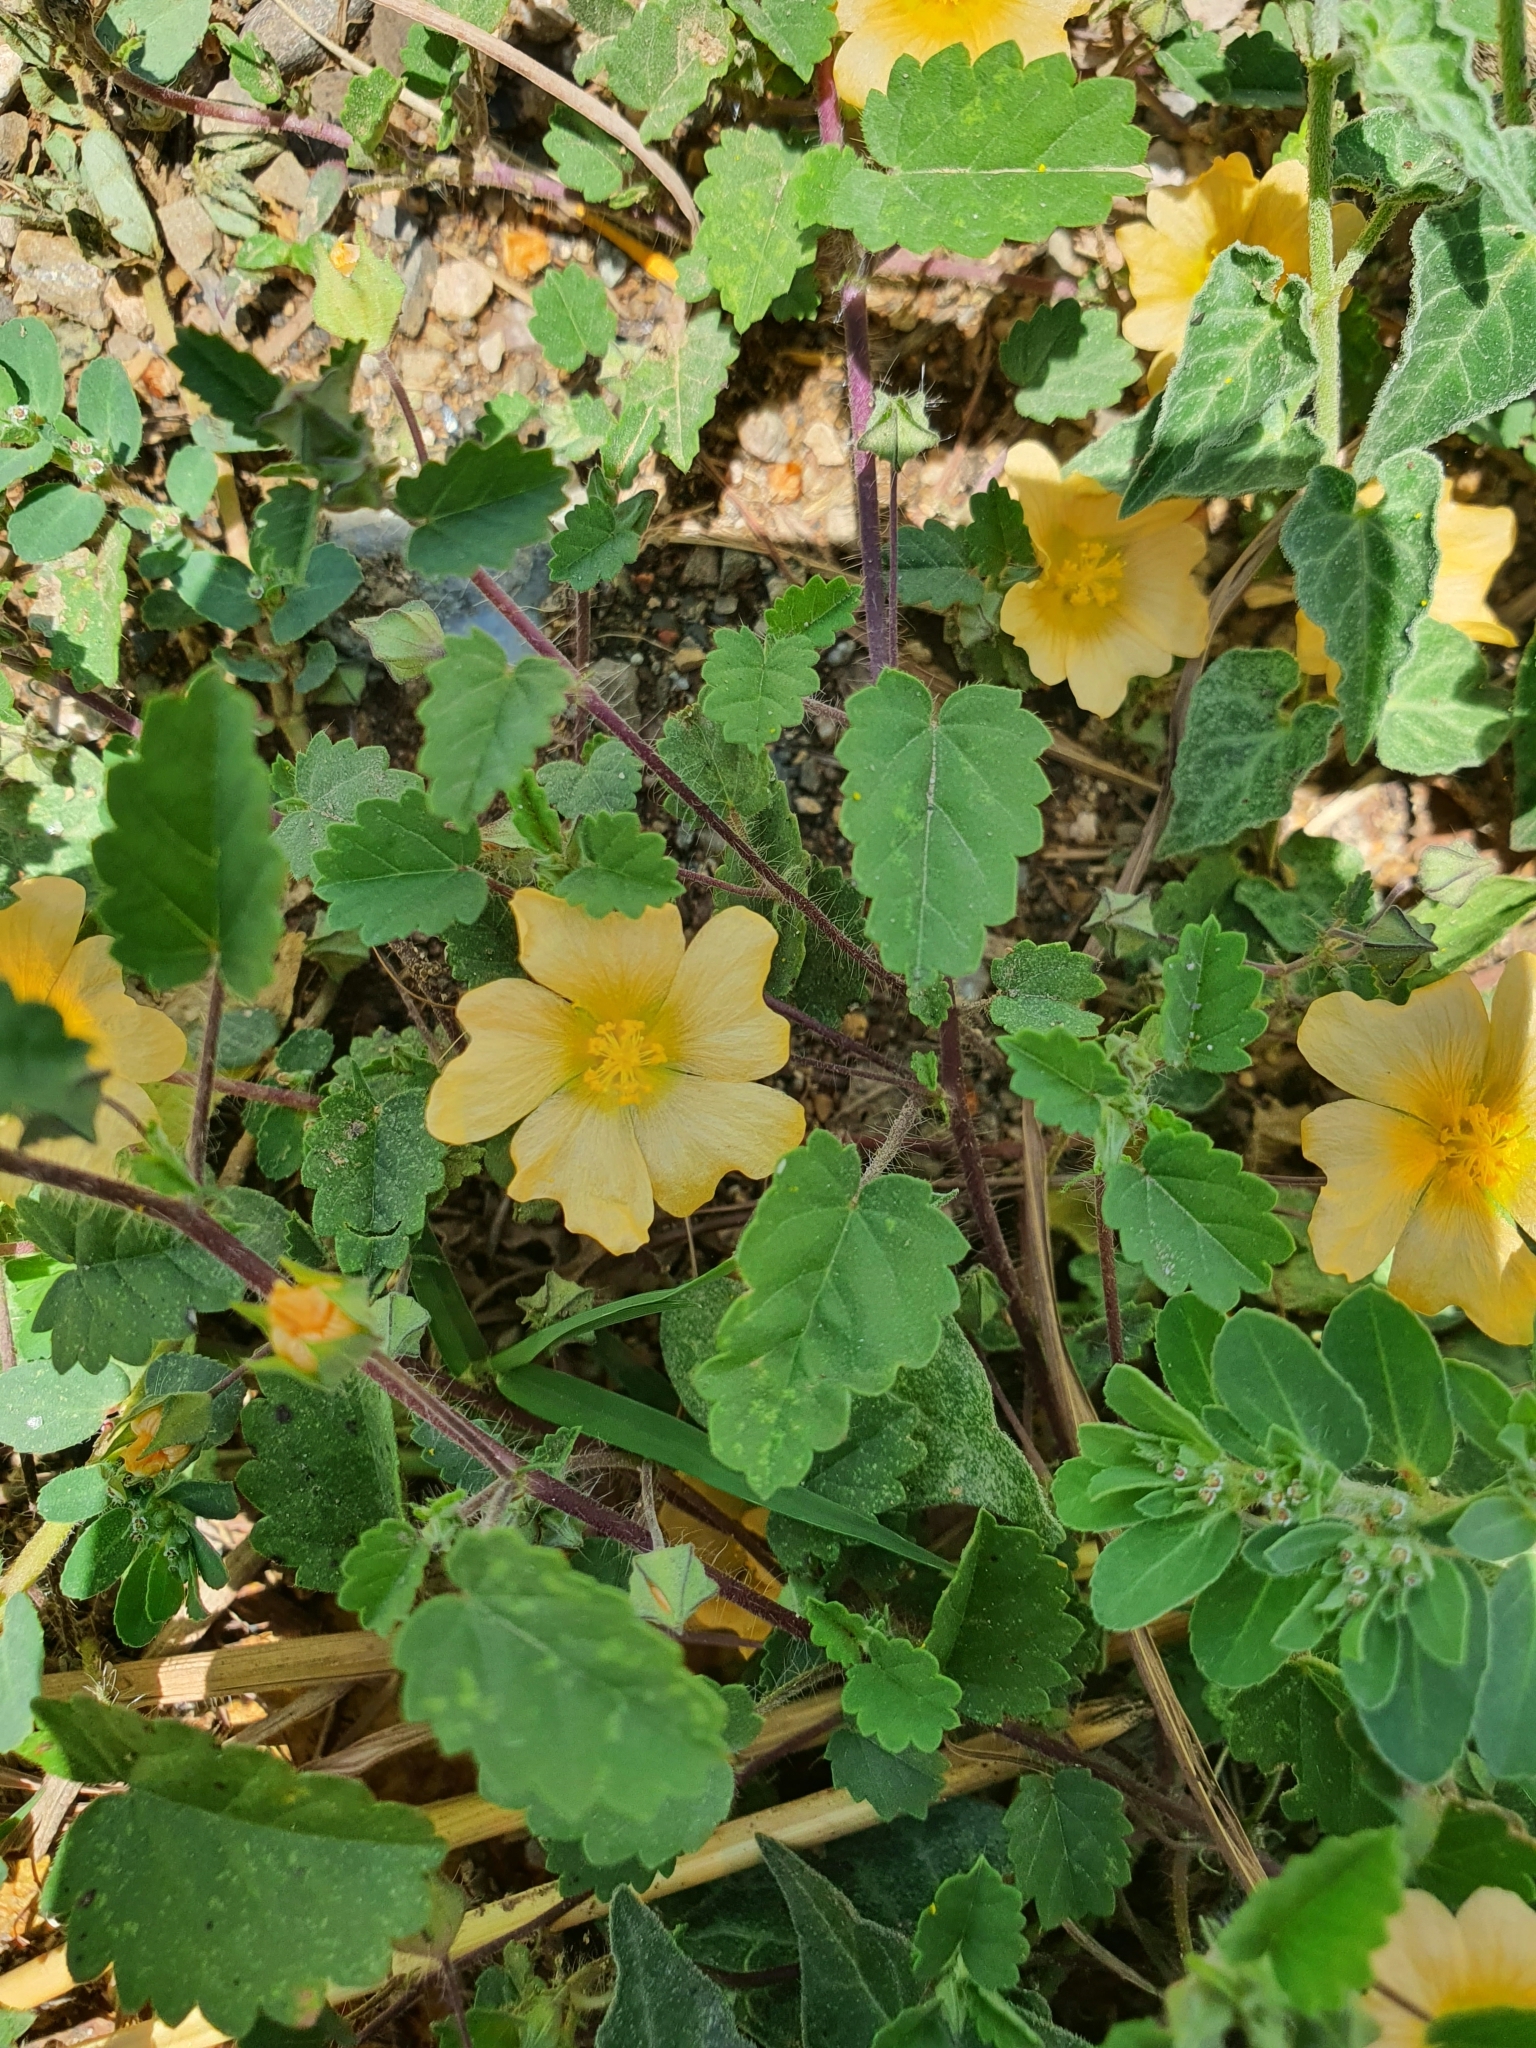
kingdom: Plantae
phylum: Tracheophyta
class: Magnoliopsida
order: Malvales
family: Malvaceae
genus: Sida
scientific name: Sida abutilifolia
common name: Spreading fanpetals
